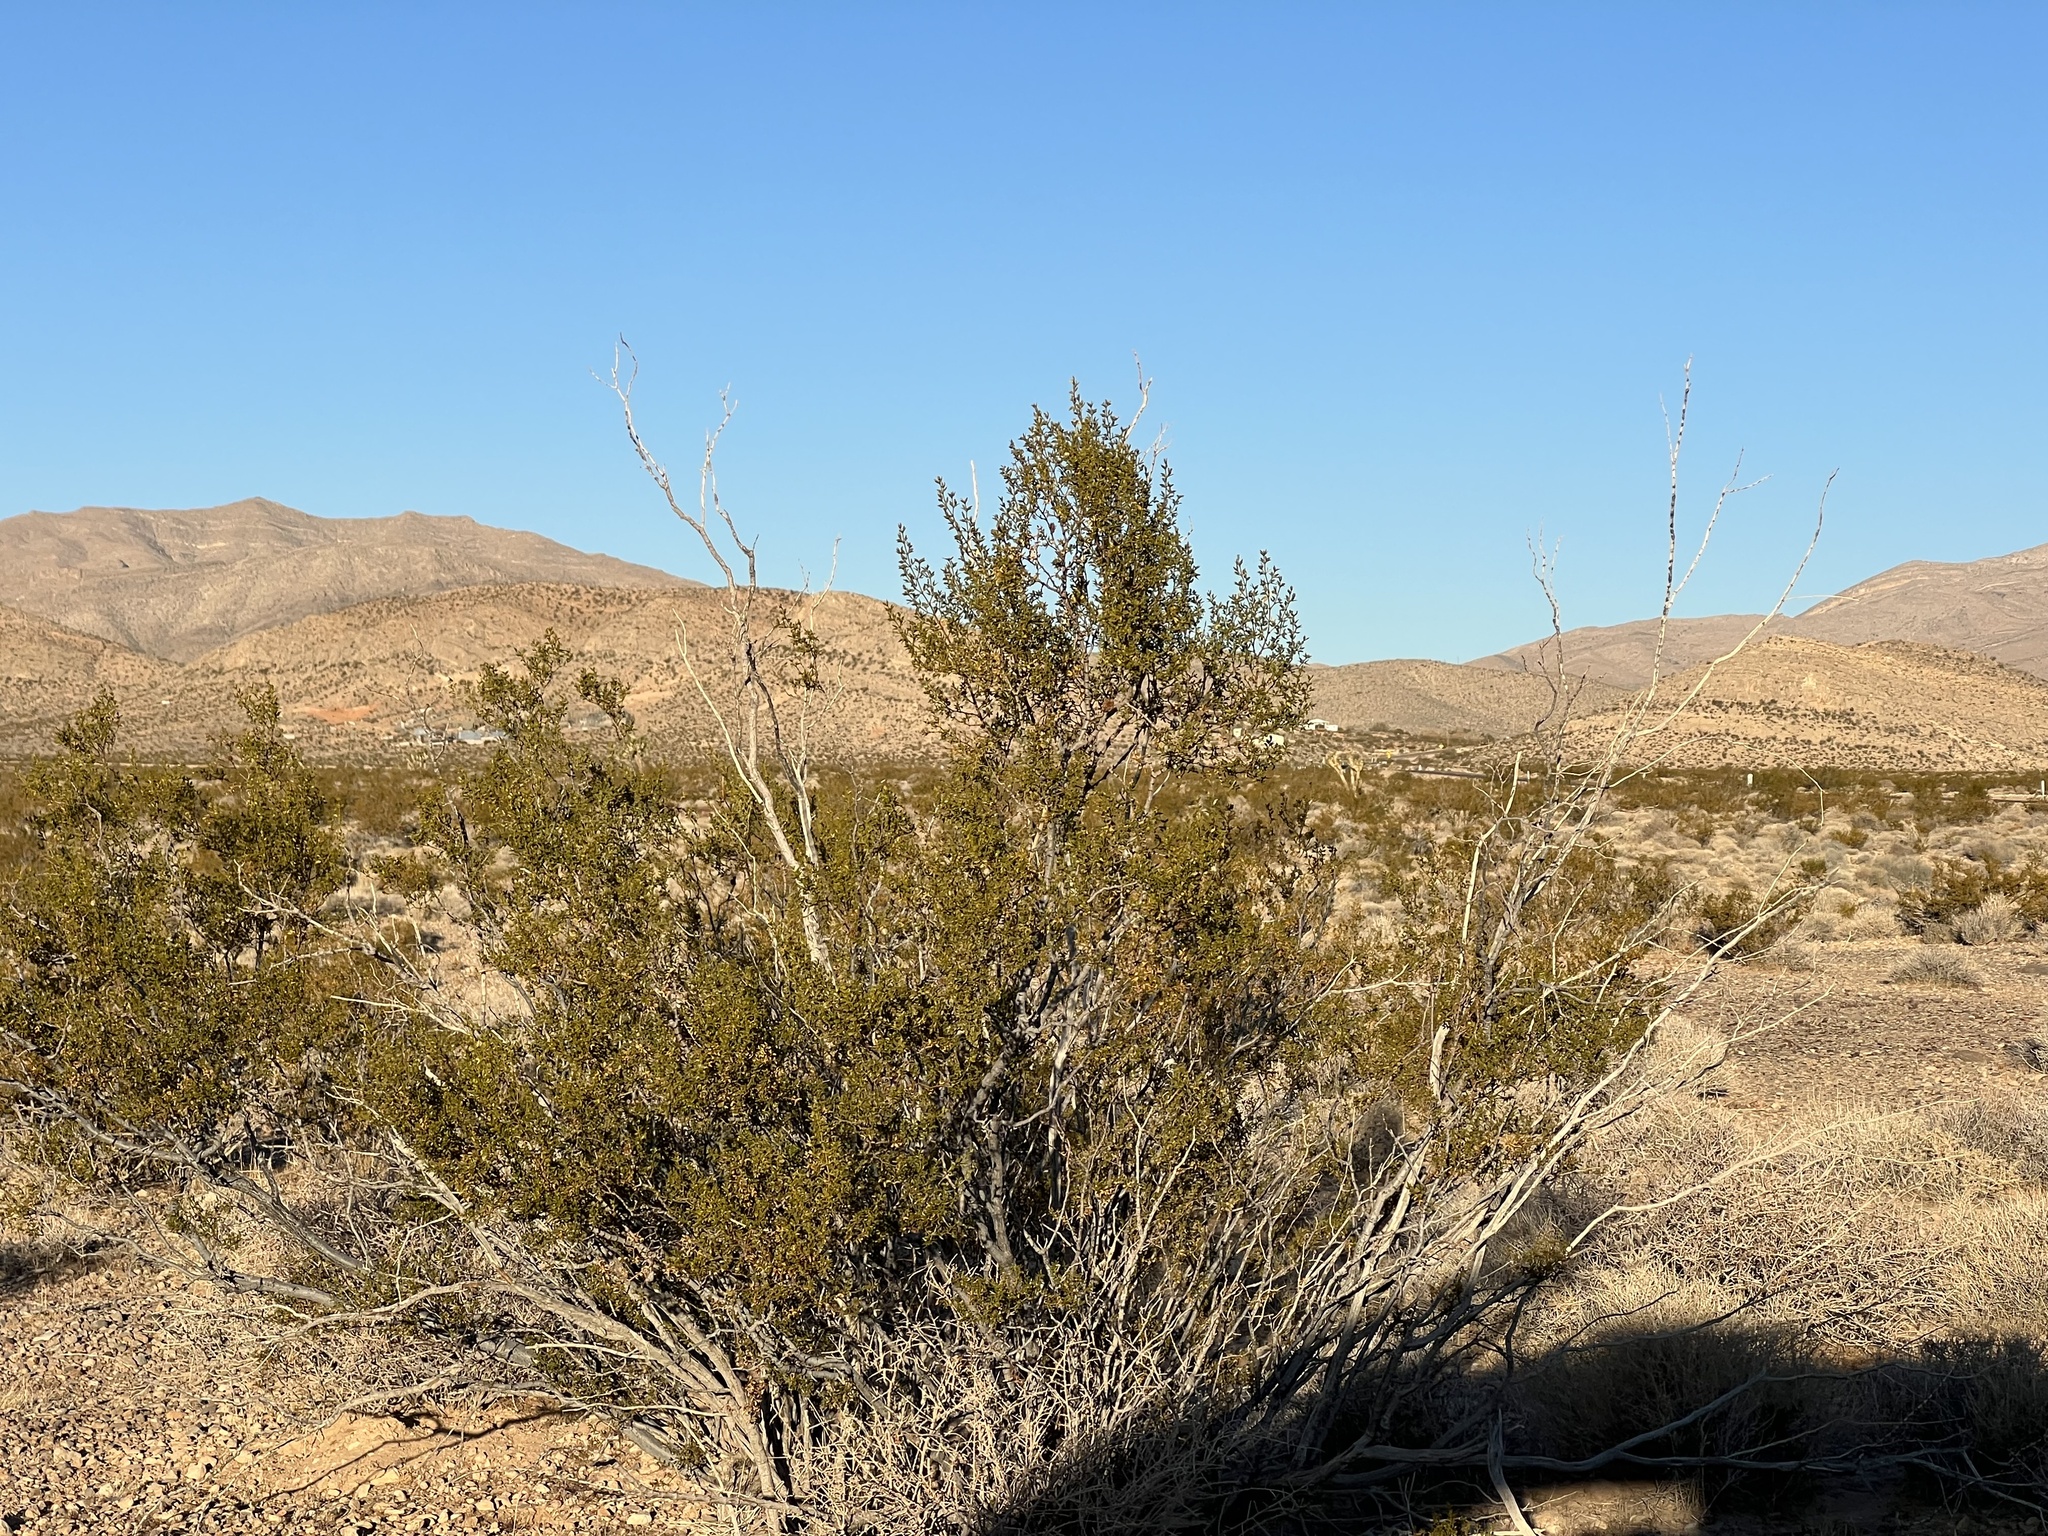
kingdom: Plantae
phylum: Tracheophyta
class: Magnoliopsida
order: Zygophyllales
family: Zygophyllaceae
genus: Larrea
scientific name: Larrea tridentata
